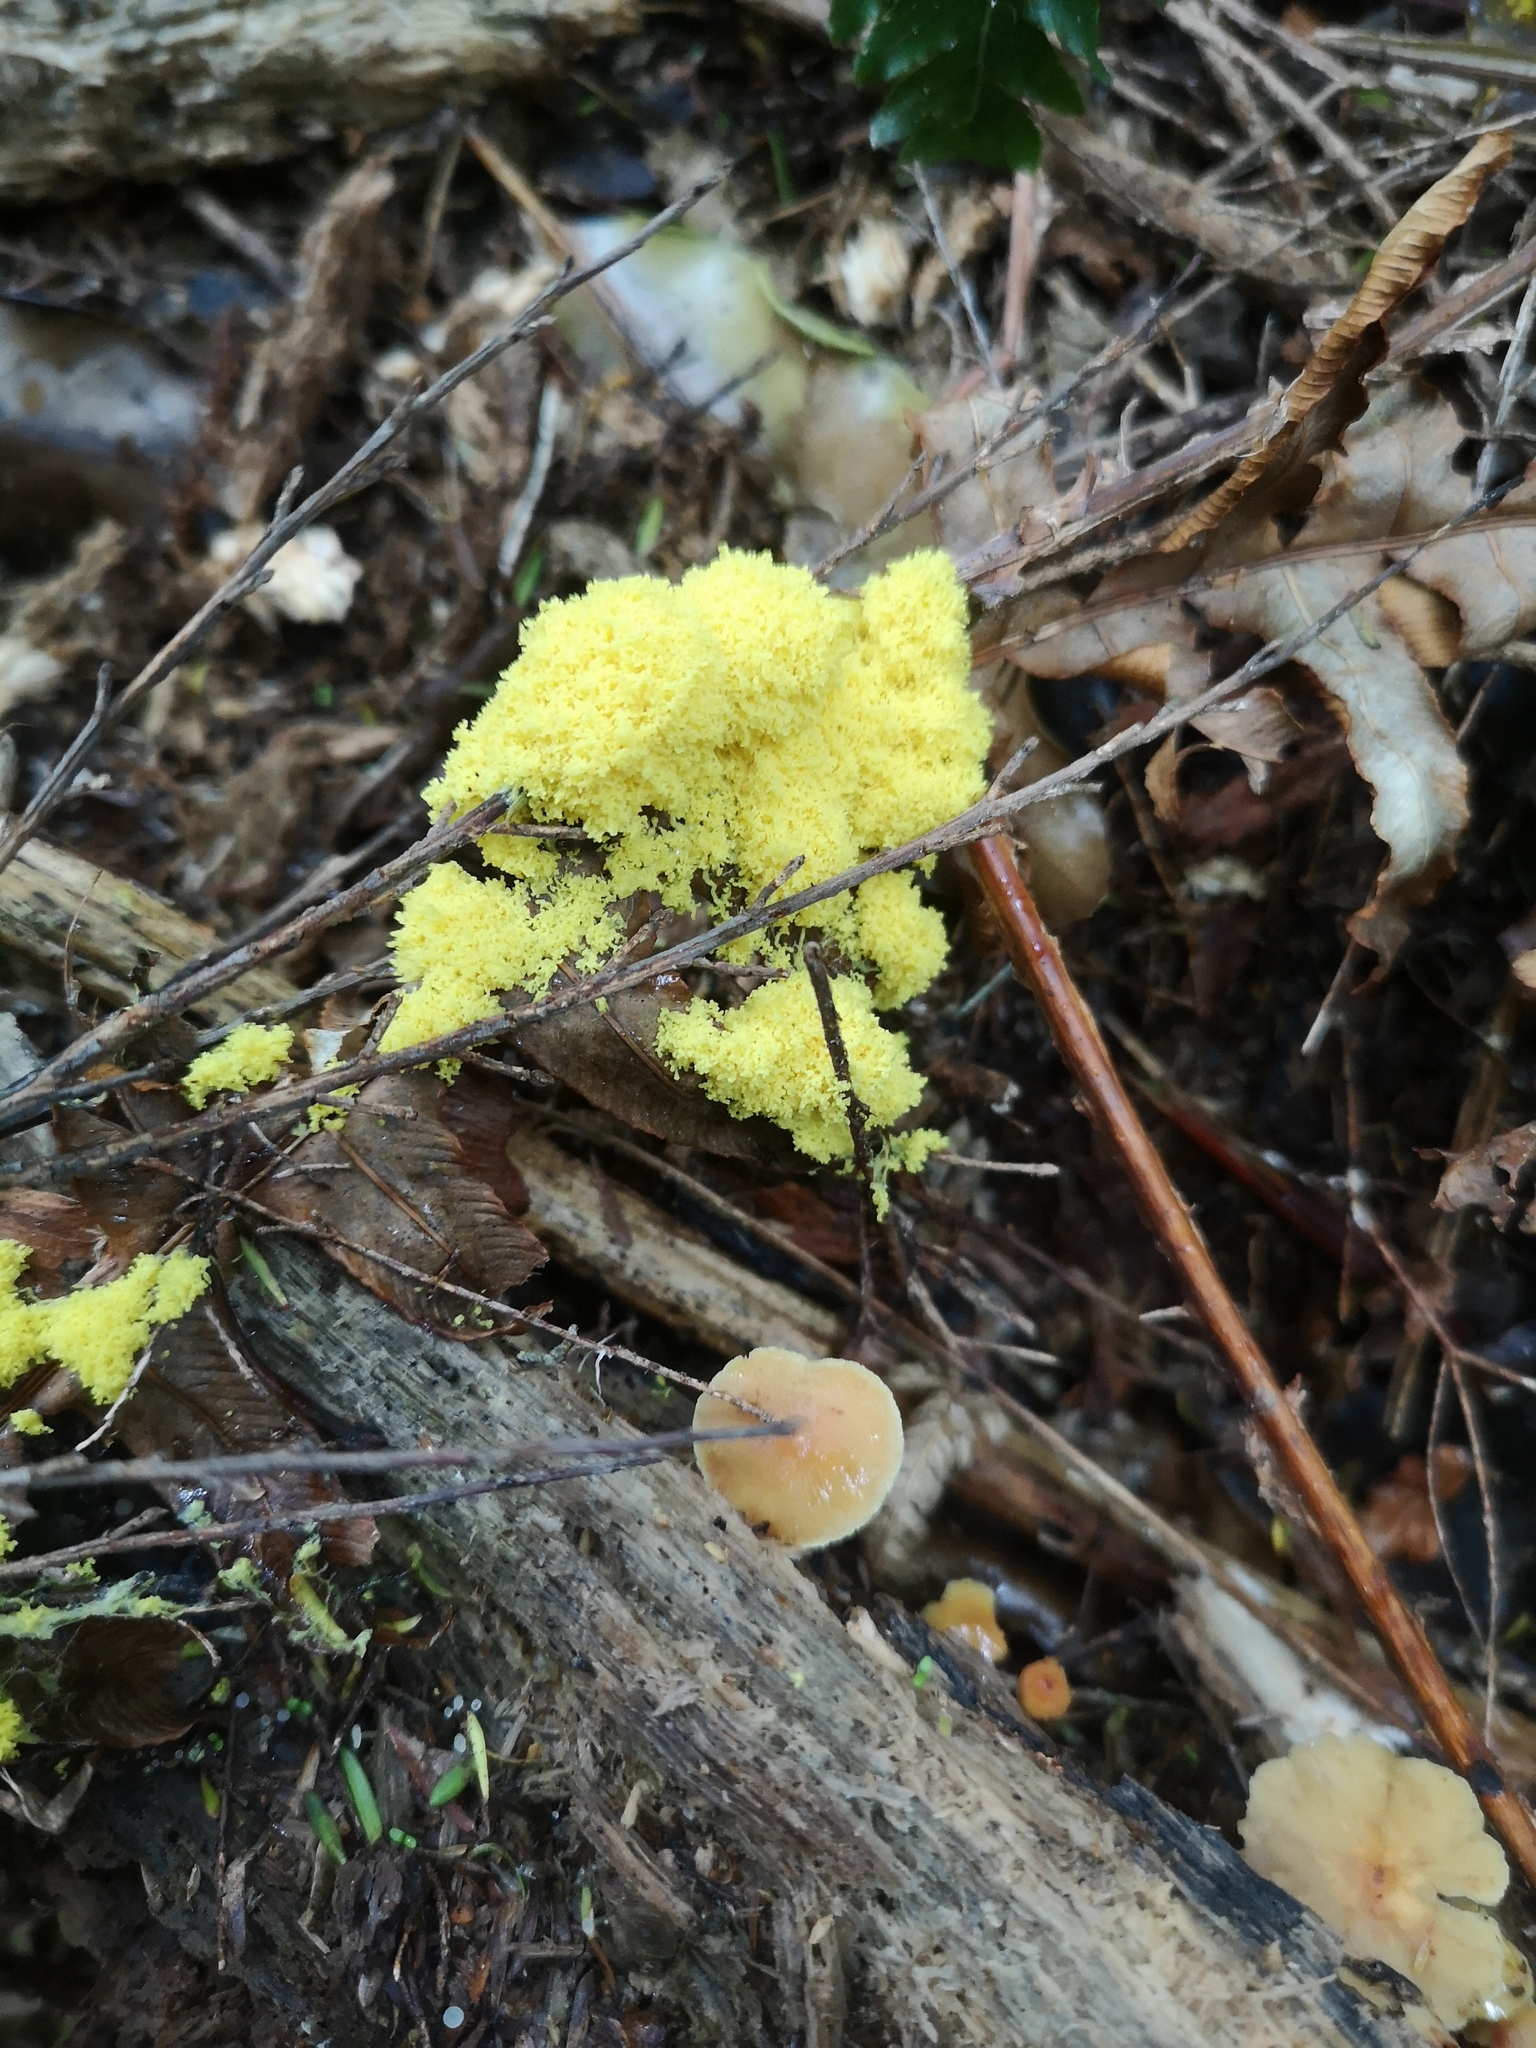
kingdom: Protozoa
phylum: Mycetozoa
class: Myxomycetes
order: Physarales
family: Physaraceae
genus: Fuligo
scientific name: Fuligo septica
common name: Dog vomit slime mold
